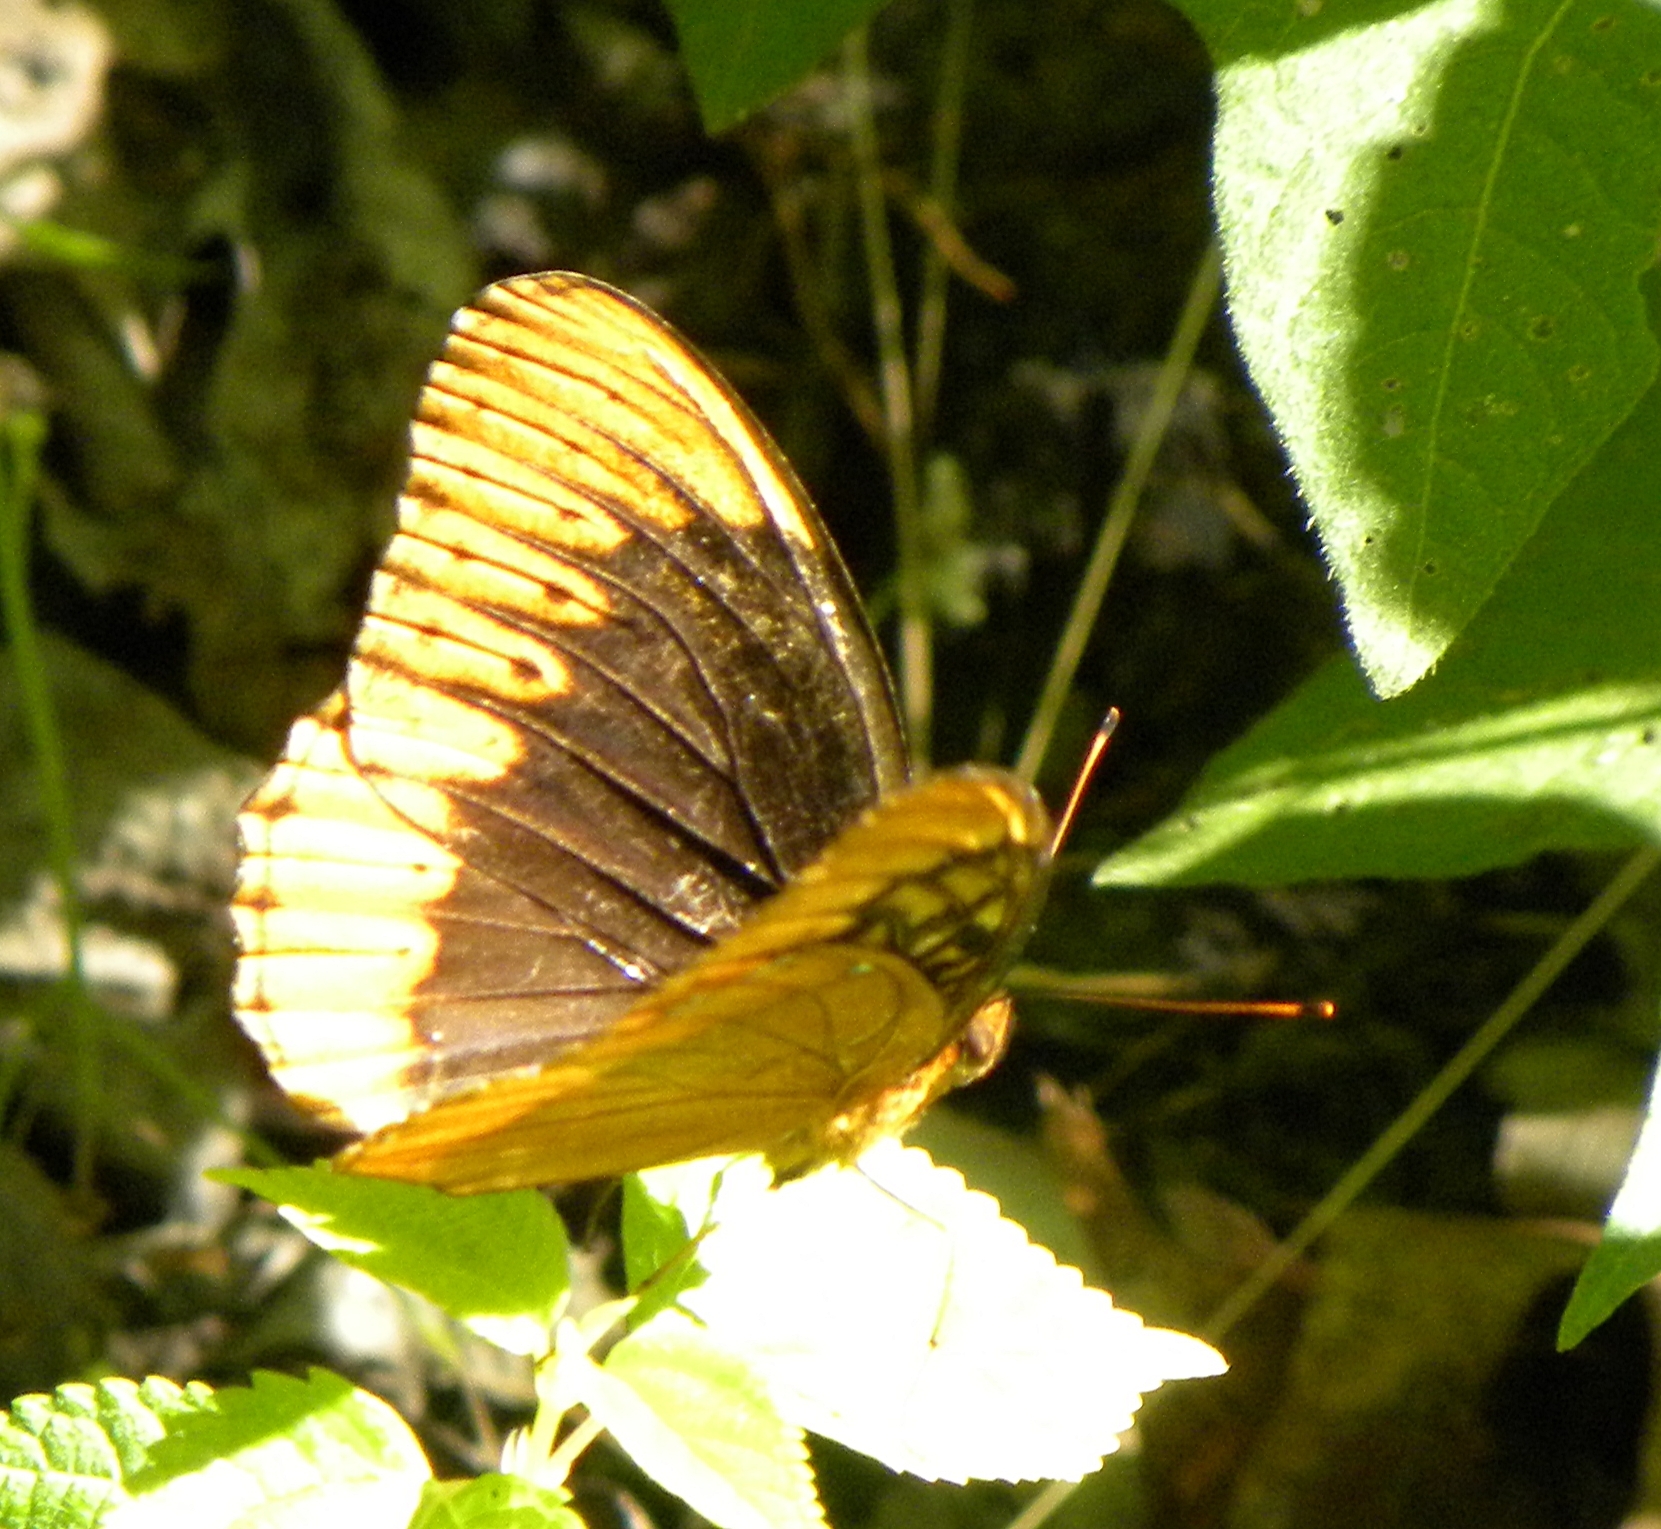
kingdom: Animalia
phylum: Arthropoda
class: Insecta
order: Lepidoptera
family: Nymphalidae
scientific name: Nymphalidae
